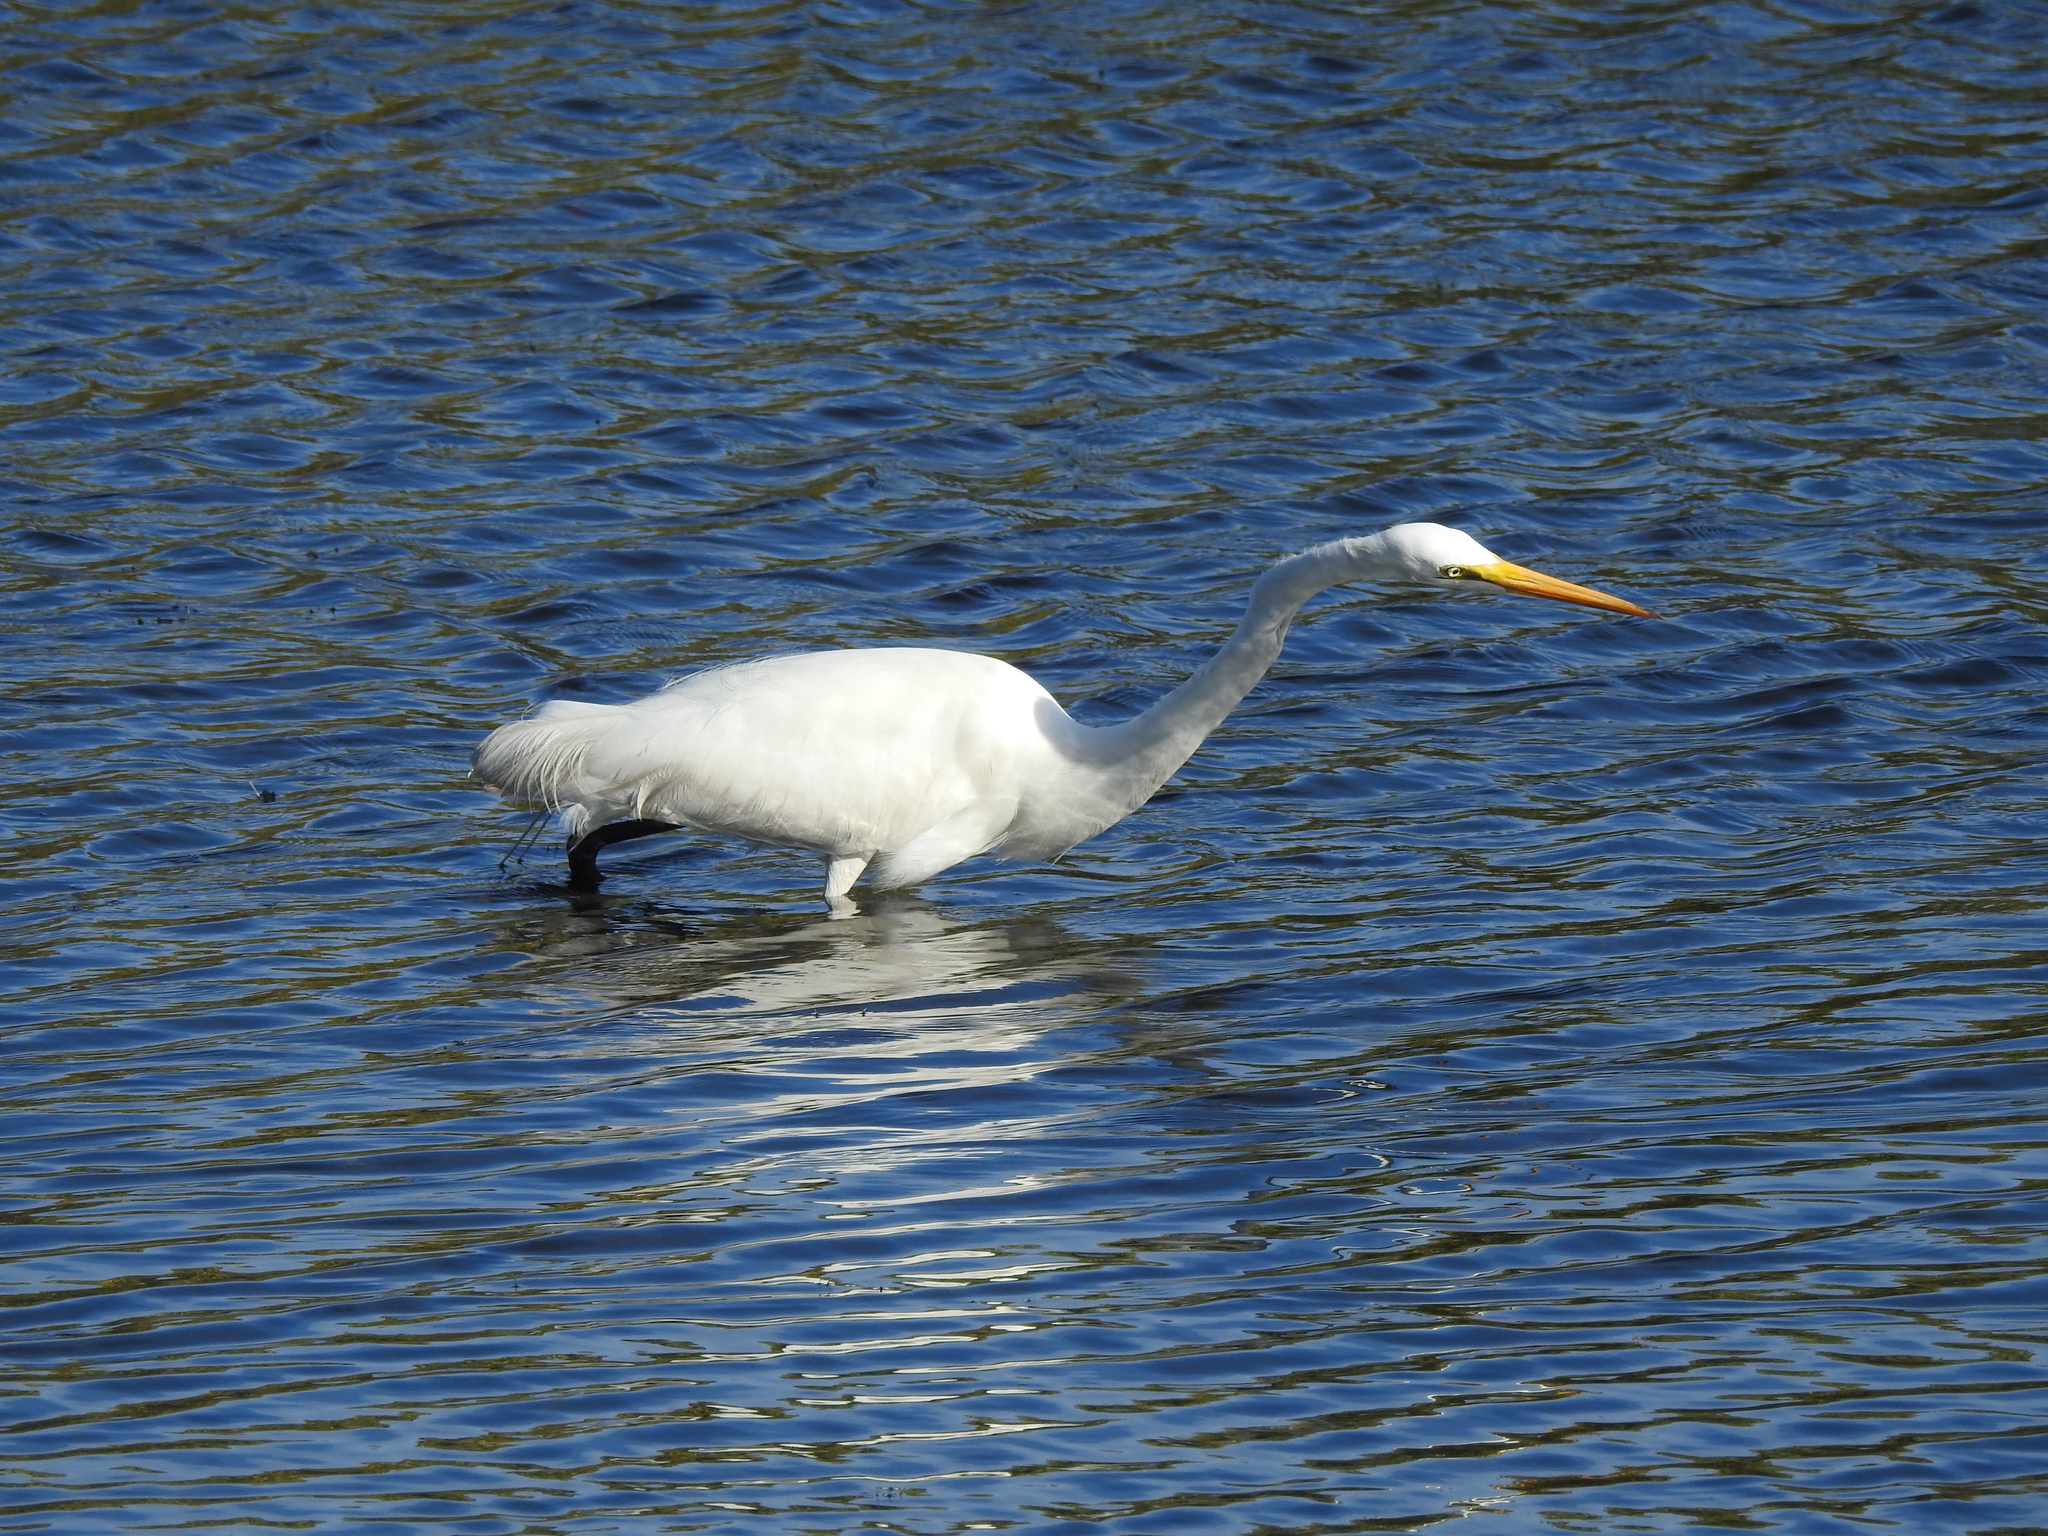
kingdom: Animalia
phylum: Chordata
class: Aves
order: Pelecaniformes
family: Ardeidae
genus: Ardea
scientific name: Ardea alba
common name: Great egret
